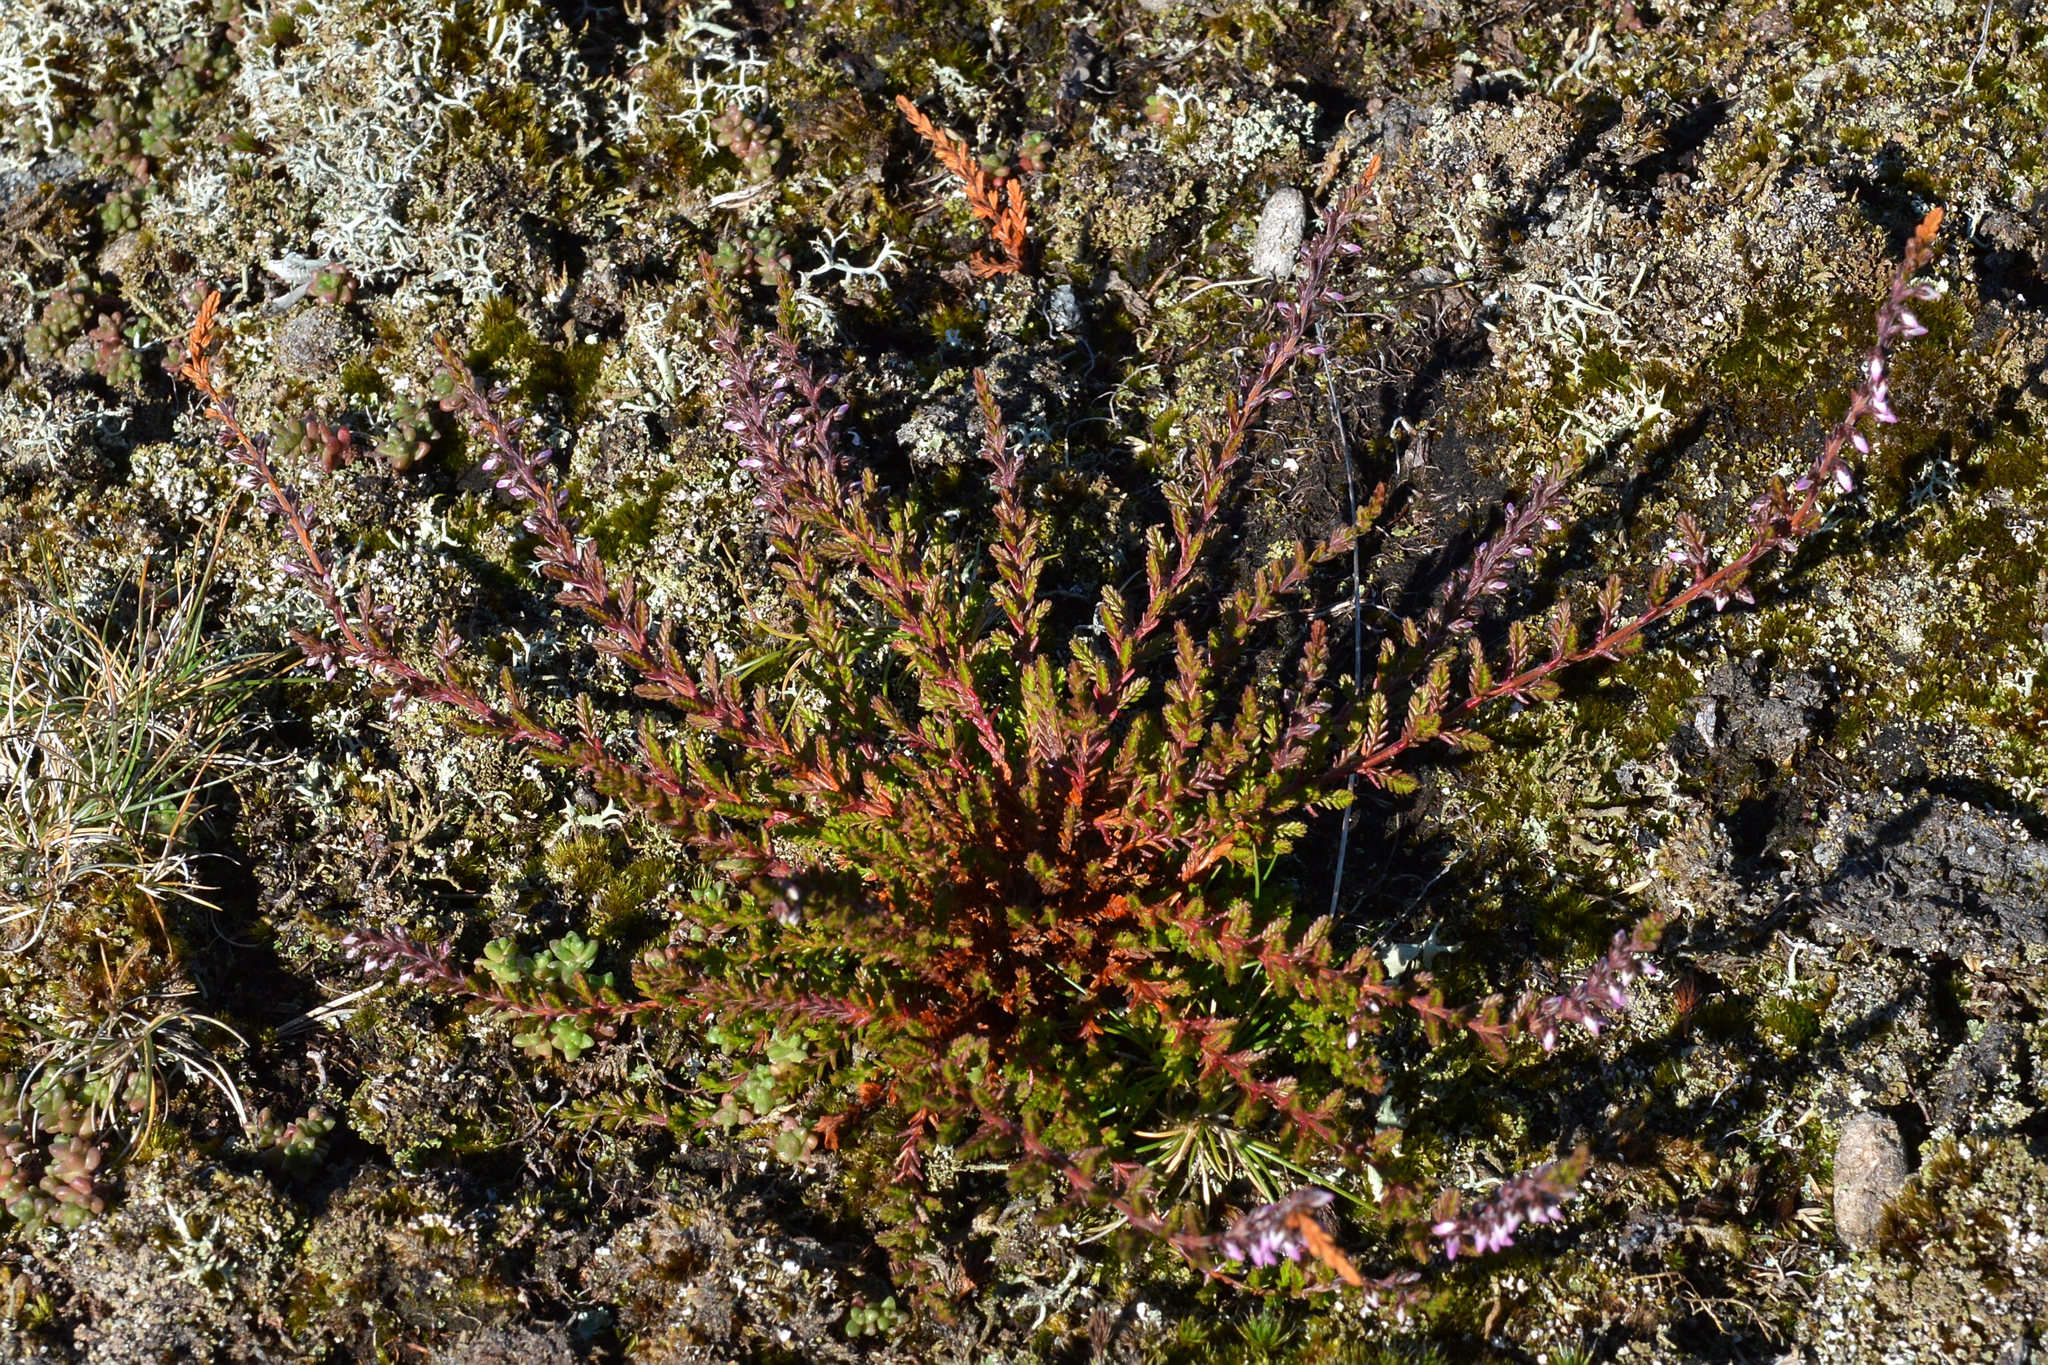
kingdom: Plantae
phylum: Tracheophyta
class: Magnoliopsida
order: Ericales
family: Ericaceae
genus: Calluna
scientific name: Calluna vulgaris
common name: Heather
